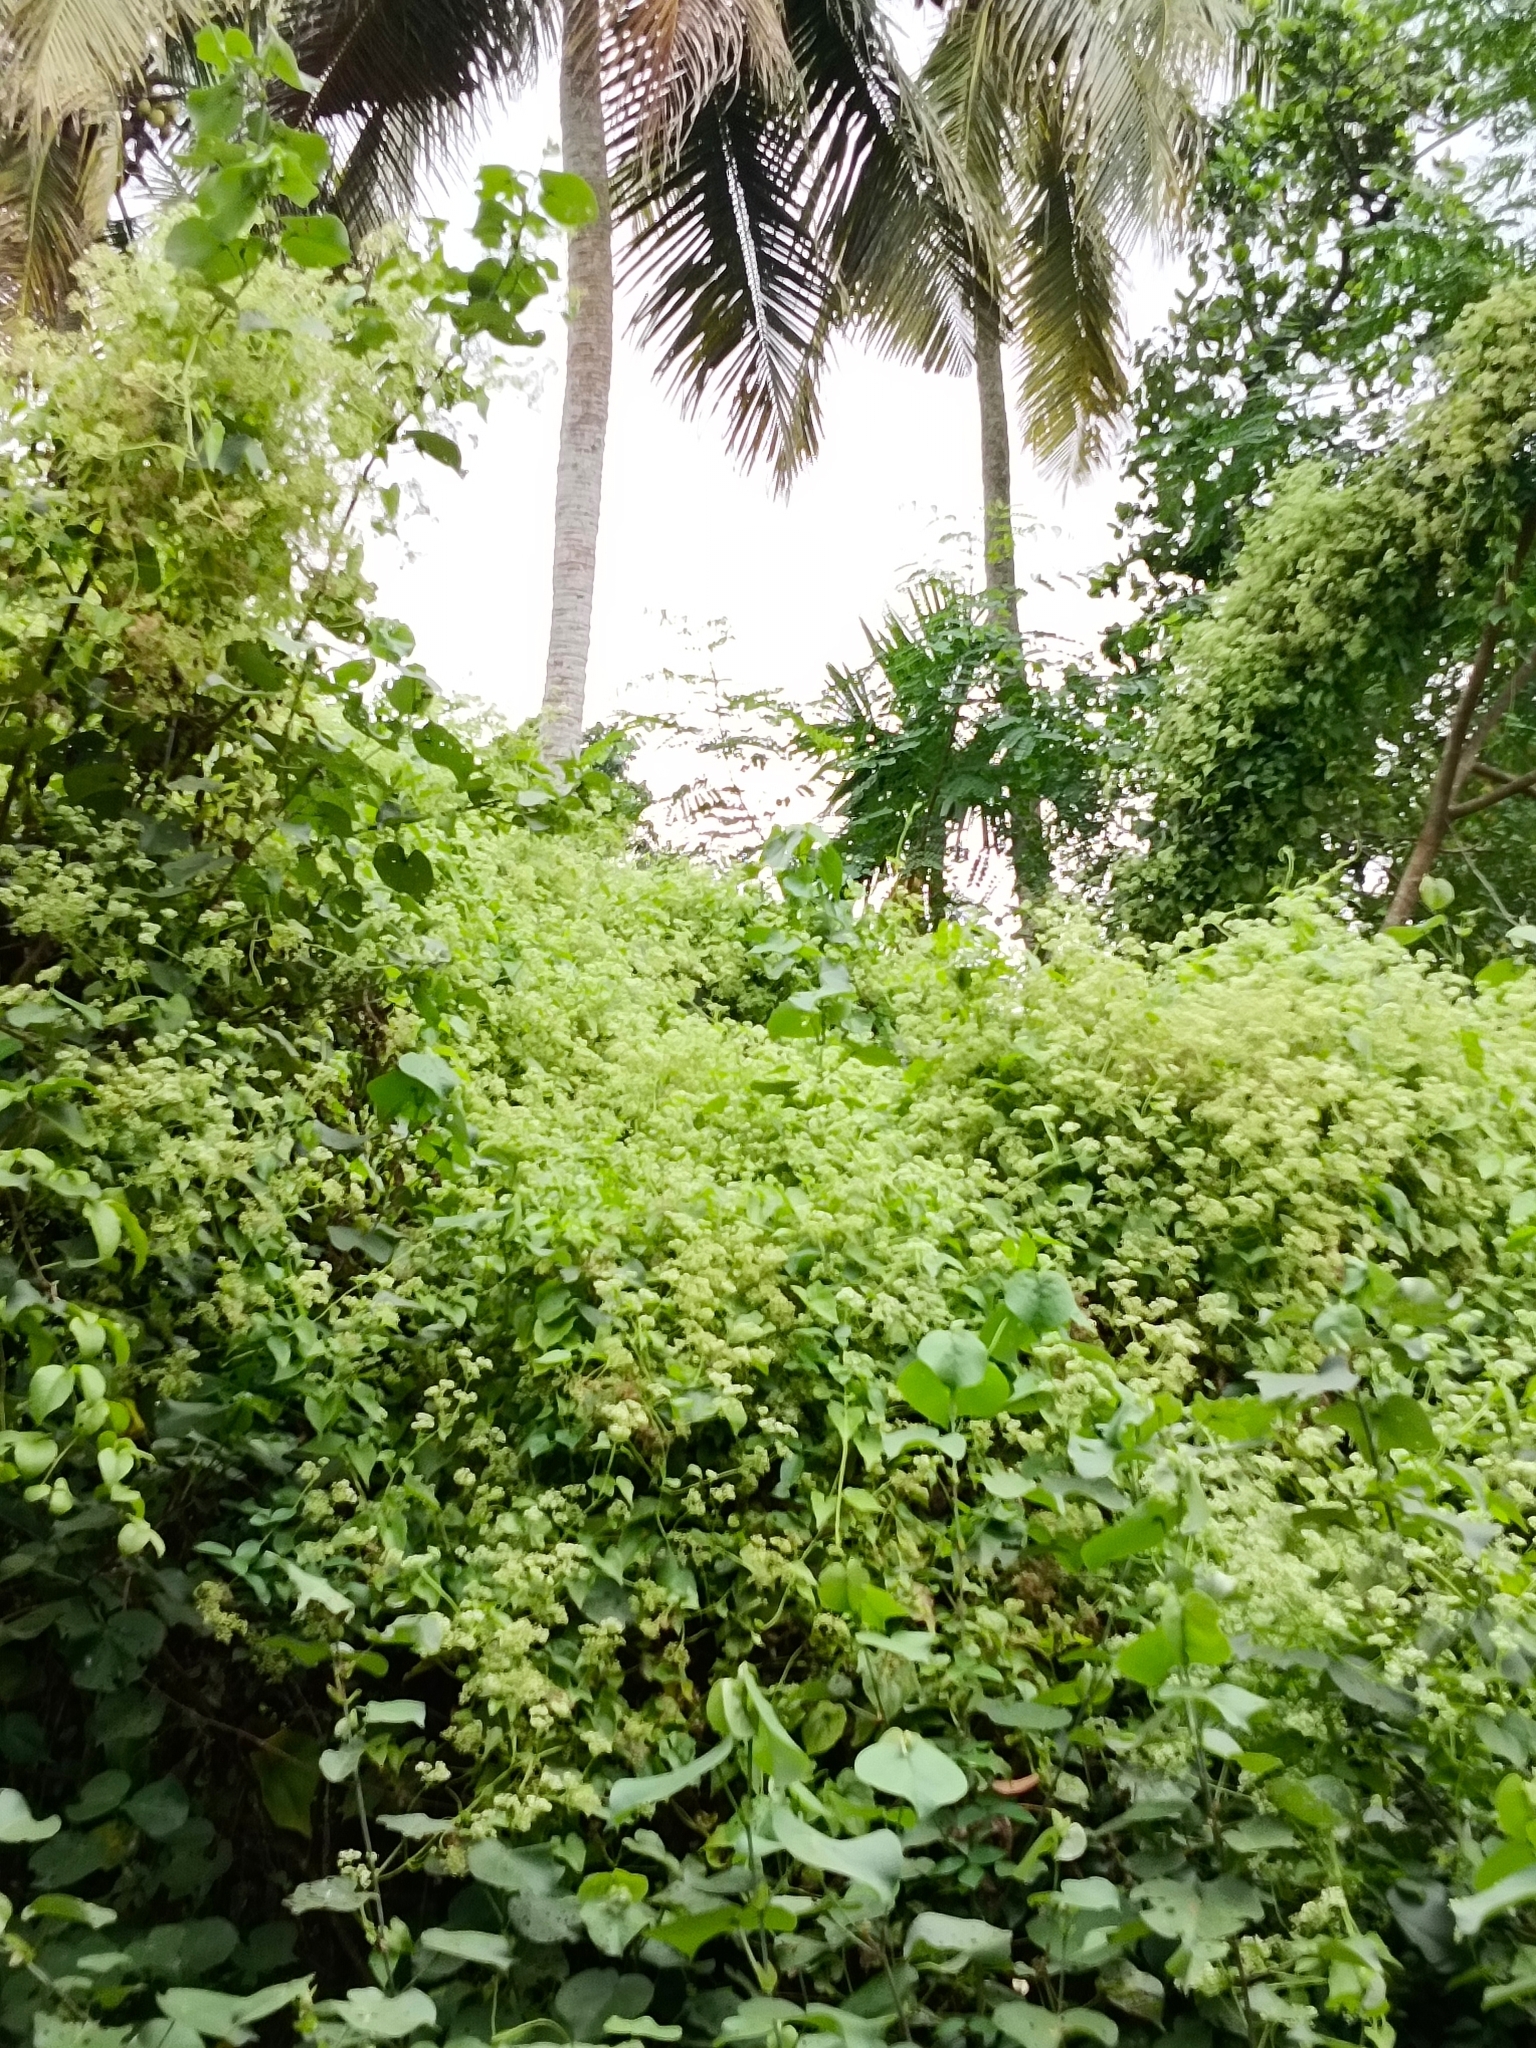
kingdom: Plantae
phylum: Tracheophyta
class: Magnoliopsida
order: Asterales
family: Asteraceae
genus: Mikania
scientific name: Mikania micrantha
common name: Mile-a-minute
